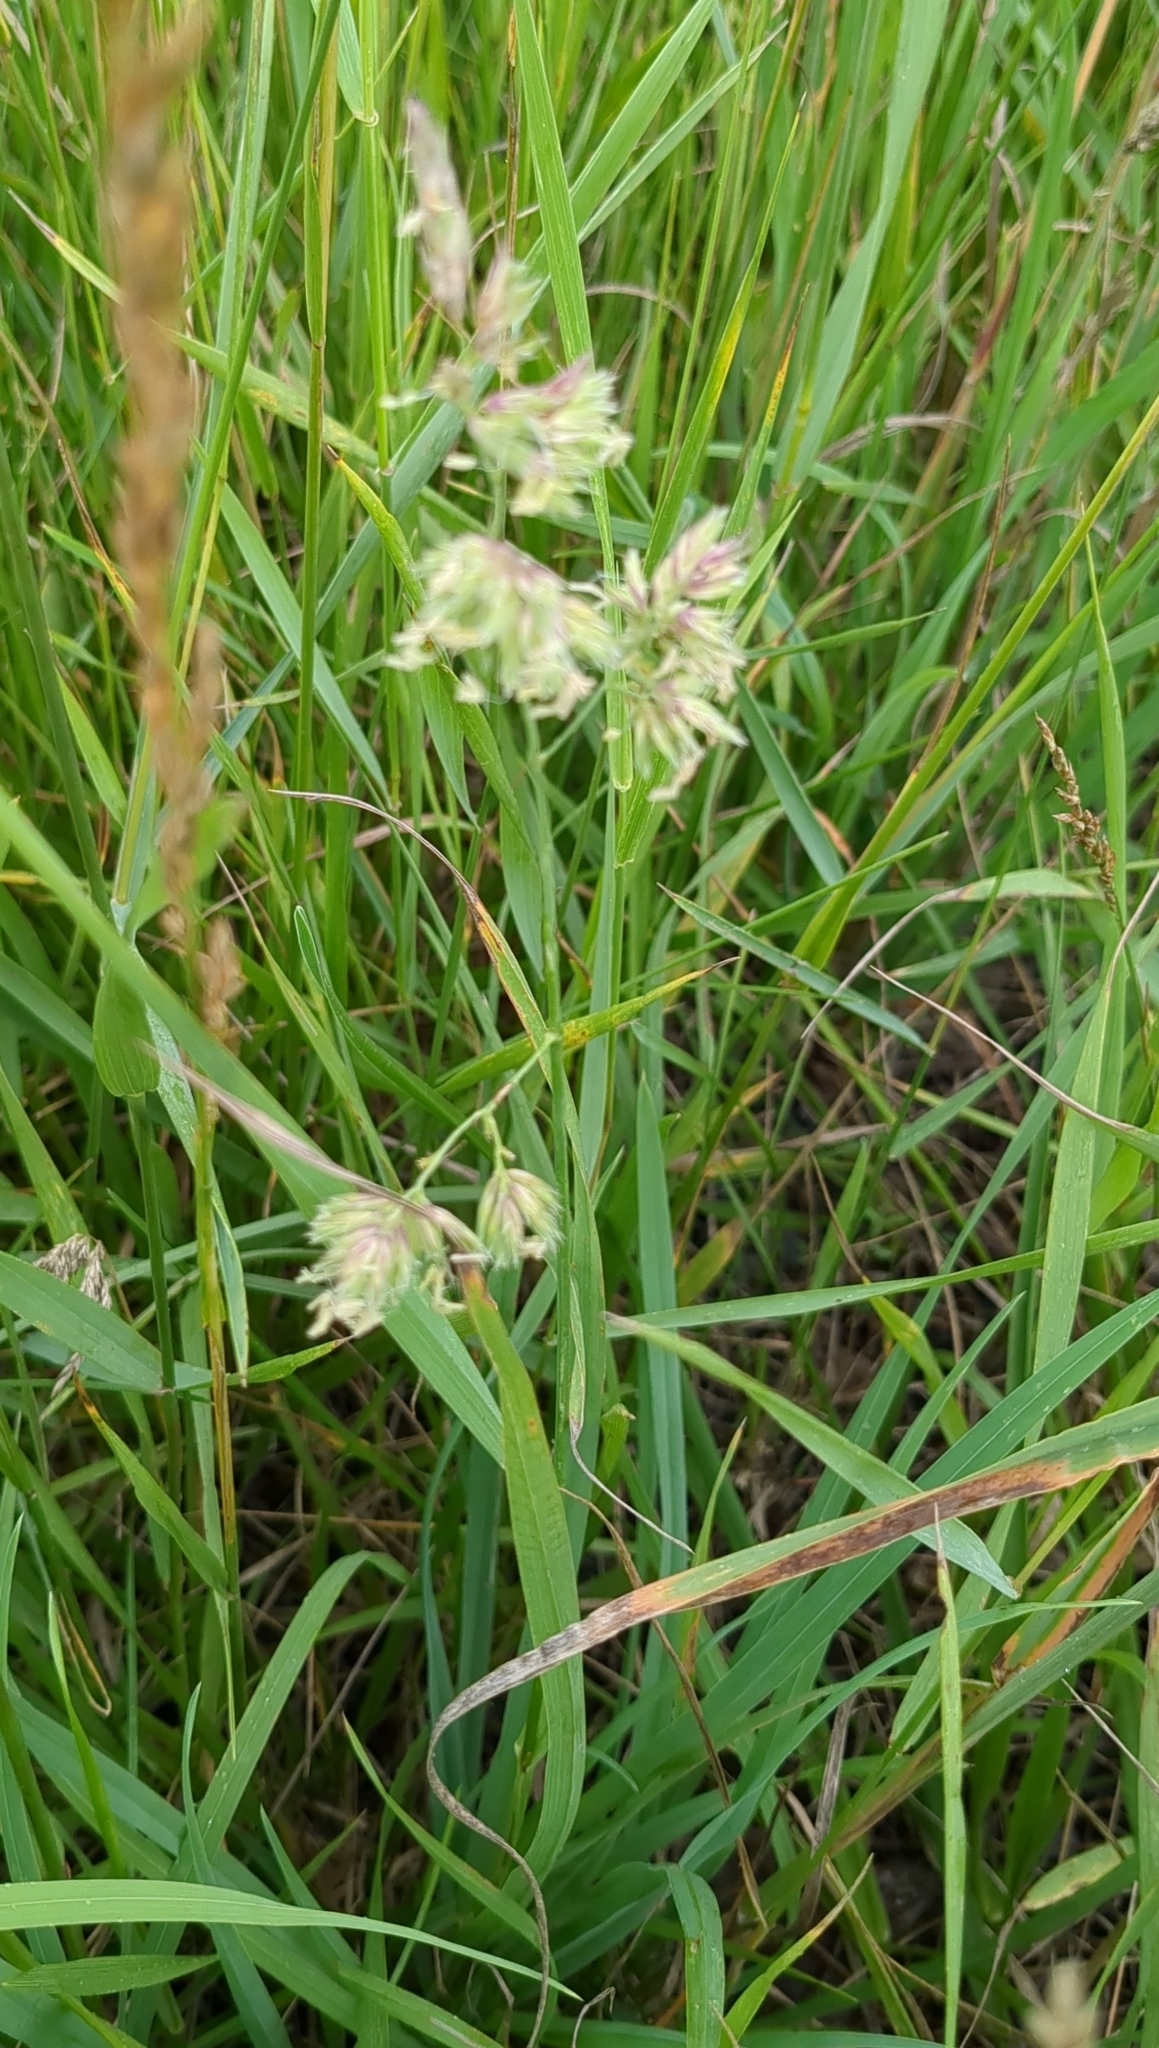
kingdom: Plantae
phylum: Tracheophyta
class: Liliopsida
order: Poales
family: Poaceae
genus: Dactylis
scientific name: Dactylis glomerata
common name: Orchardgrass
